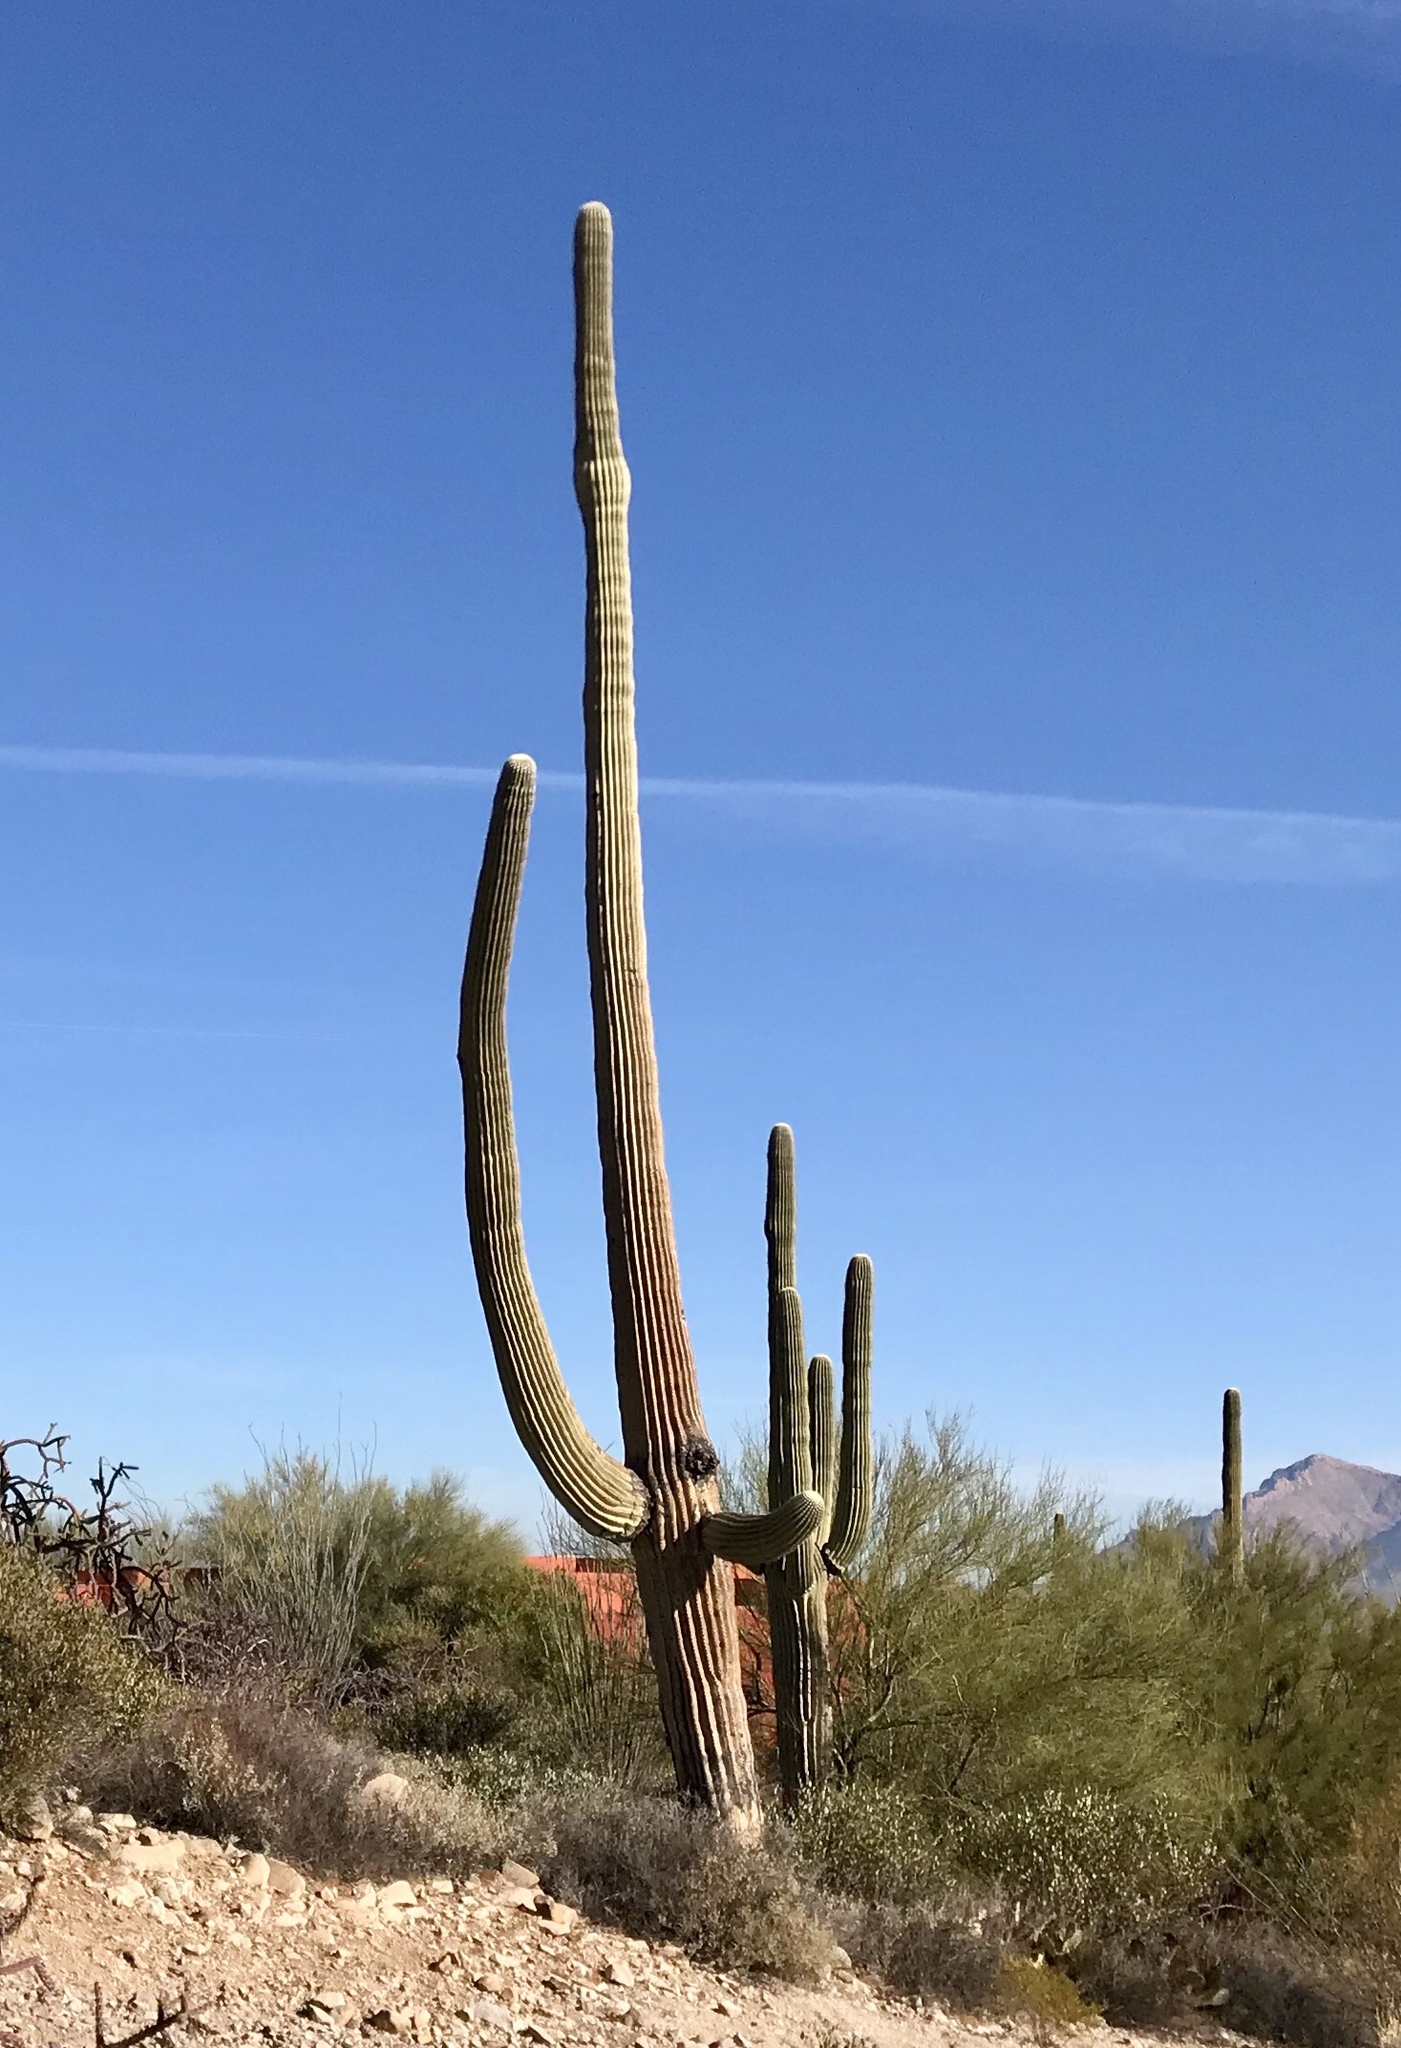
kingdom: Plantae
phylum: Tracheophyta
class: Magnoliopsida
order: Caryophyllales
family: Cactaceae
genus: Carnegiea
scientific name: Carnegiea gigantea
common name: Saguaro
